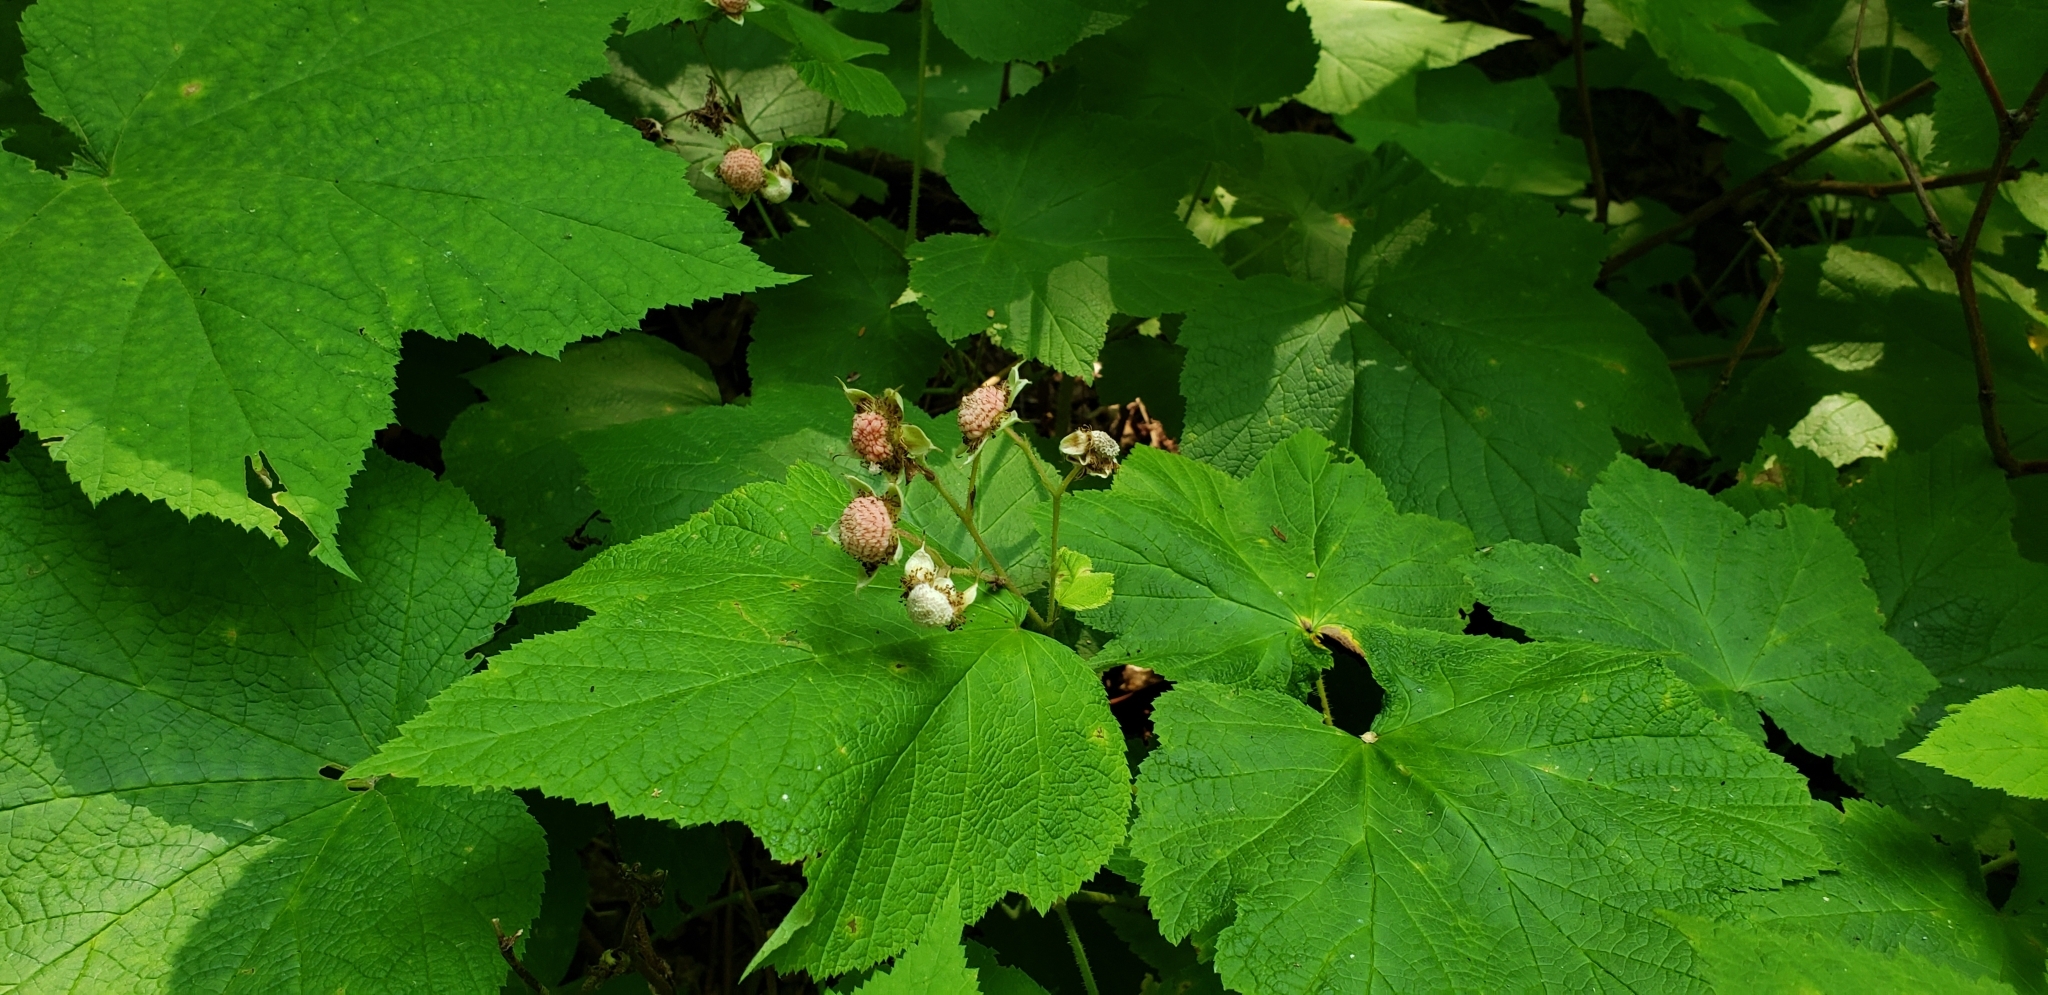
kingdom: Plantae
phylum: Tracheophyta
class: Magnoliopsida
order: Rosales
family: Rosaceae
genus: Rubus
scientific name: Rubus parviflorus
